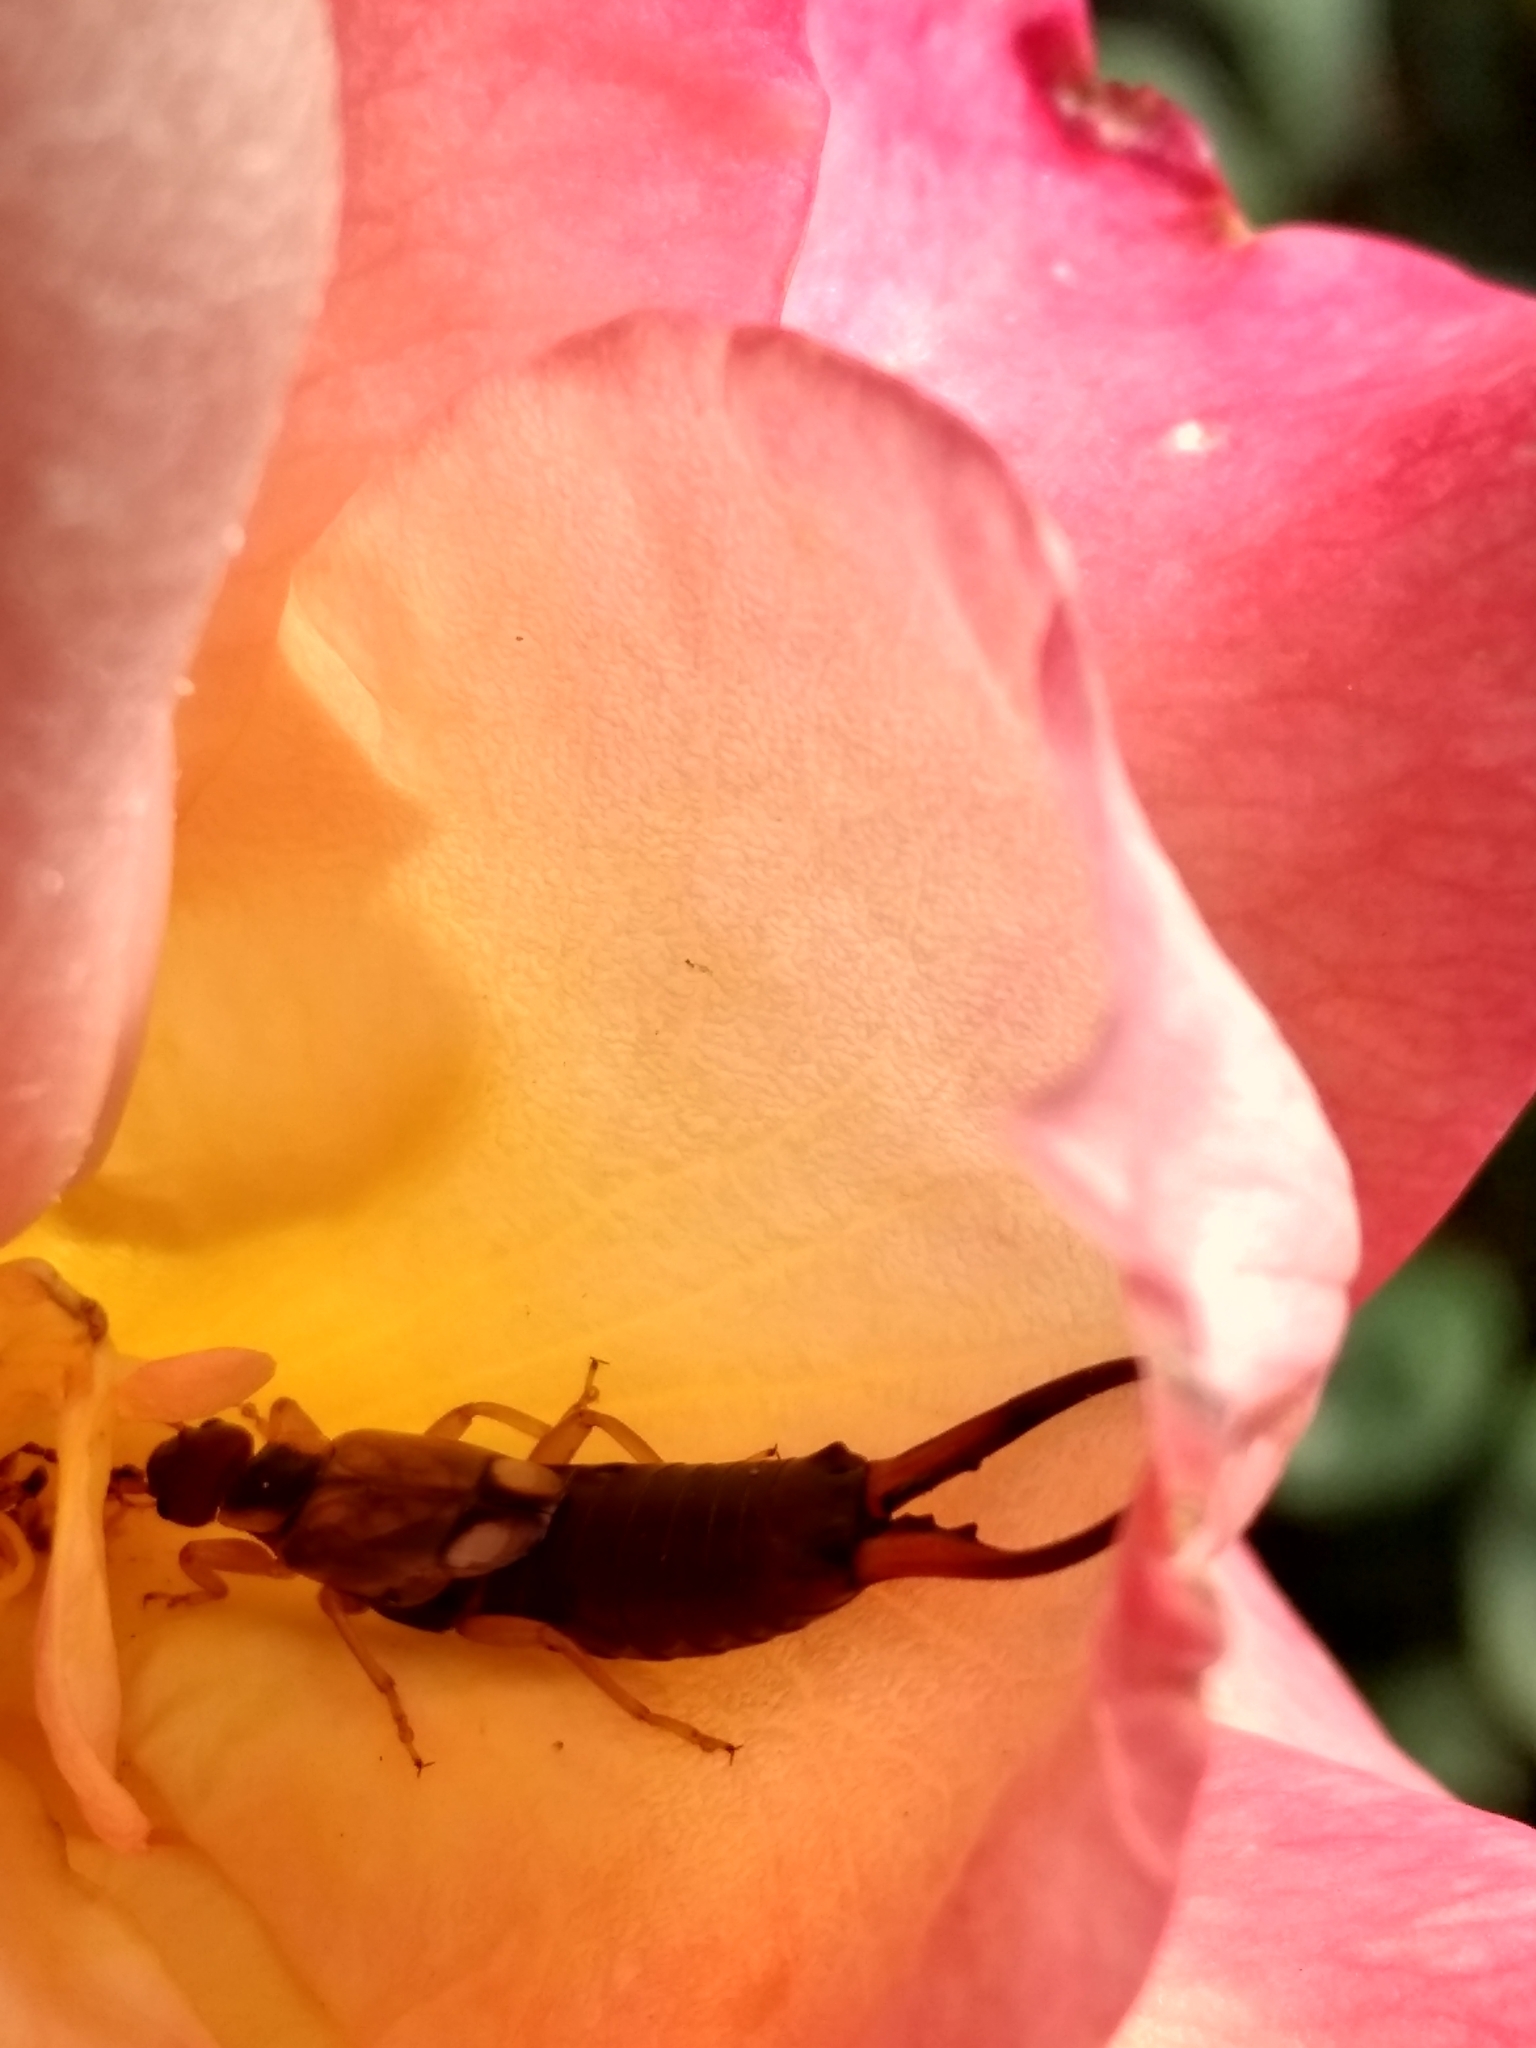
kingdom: Animalia
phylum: Arthropoda
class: Insecta
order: Dermaptera
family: Forficulidae
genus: Forficula
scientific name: Forficula
